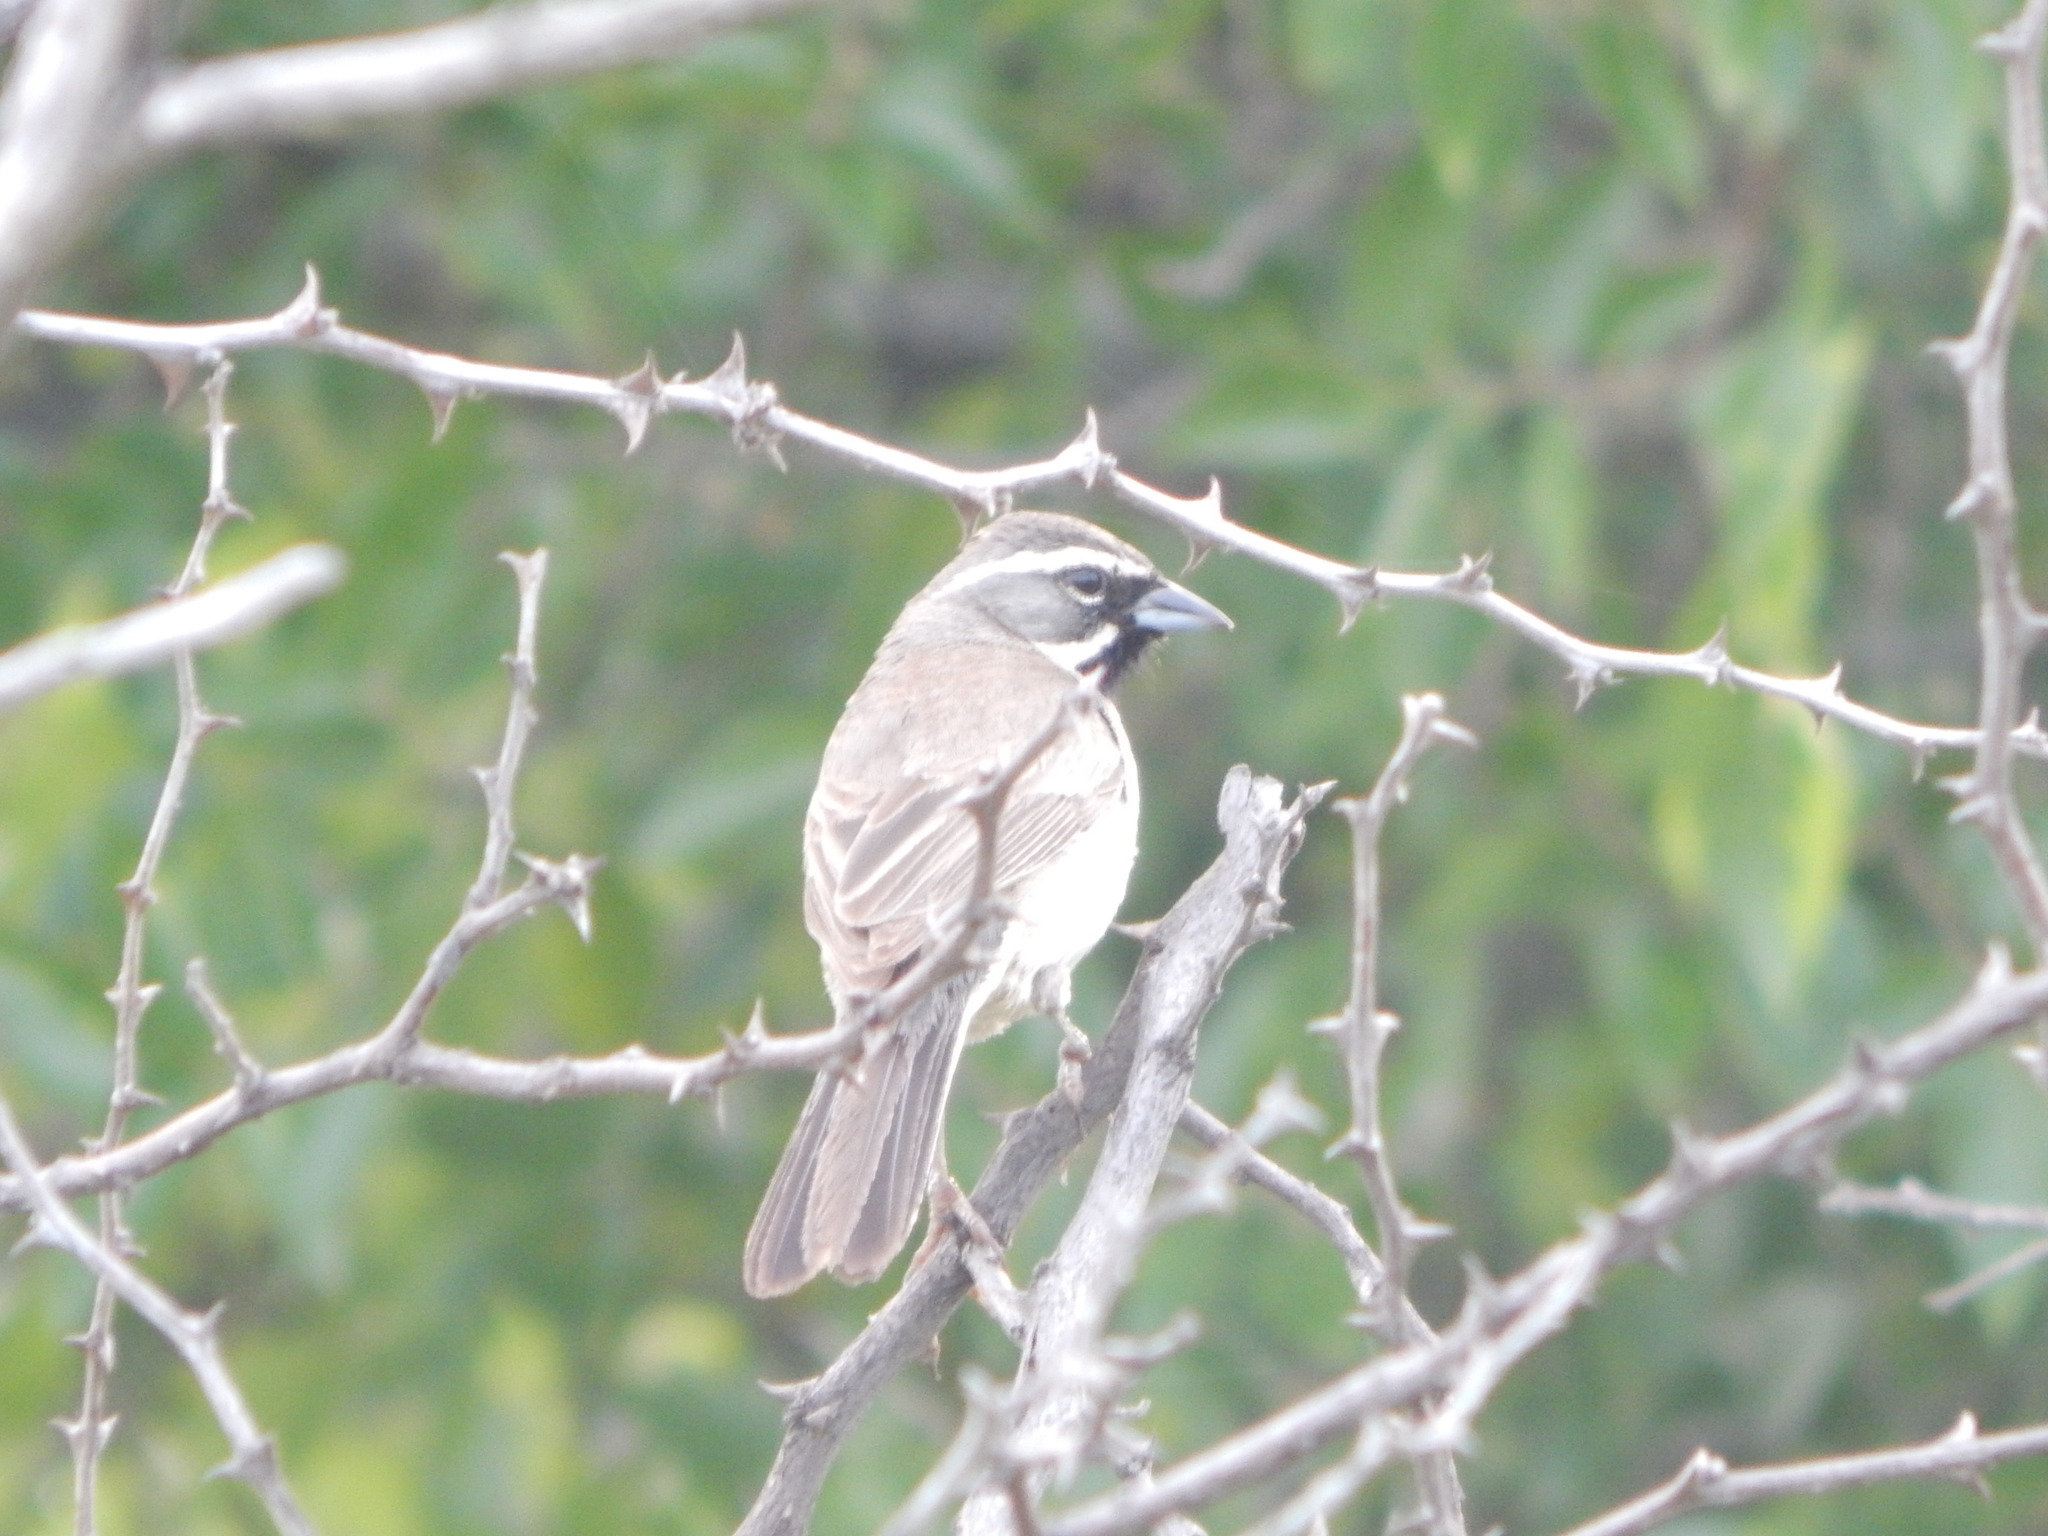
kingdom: Animalia
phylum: Chordata
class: Aves
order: Passeriformes
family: Passerellidae
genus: Amphispiza
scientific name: Amphispiza bilineata
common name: Black-throated sparrow
